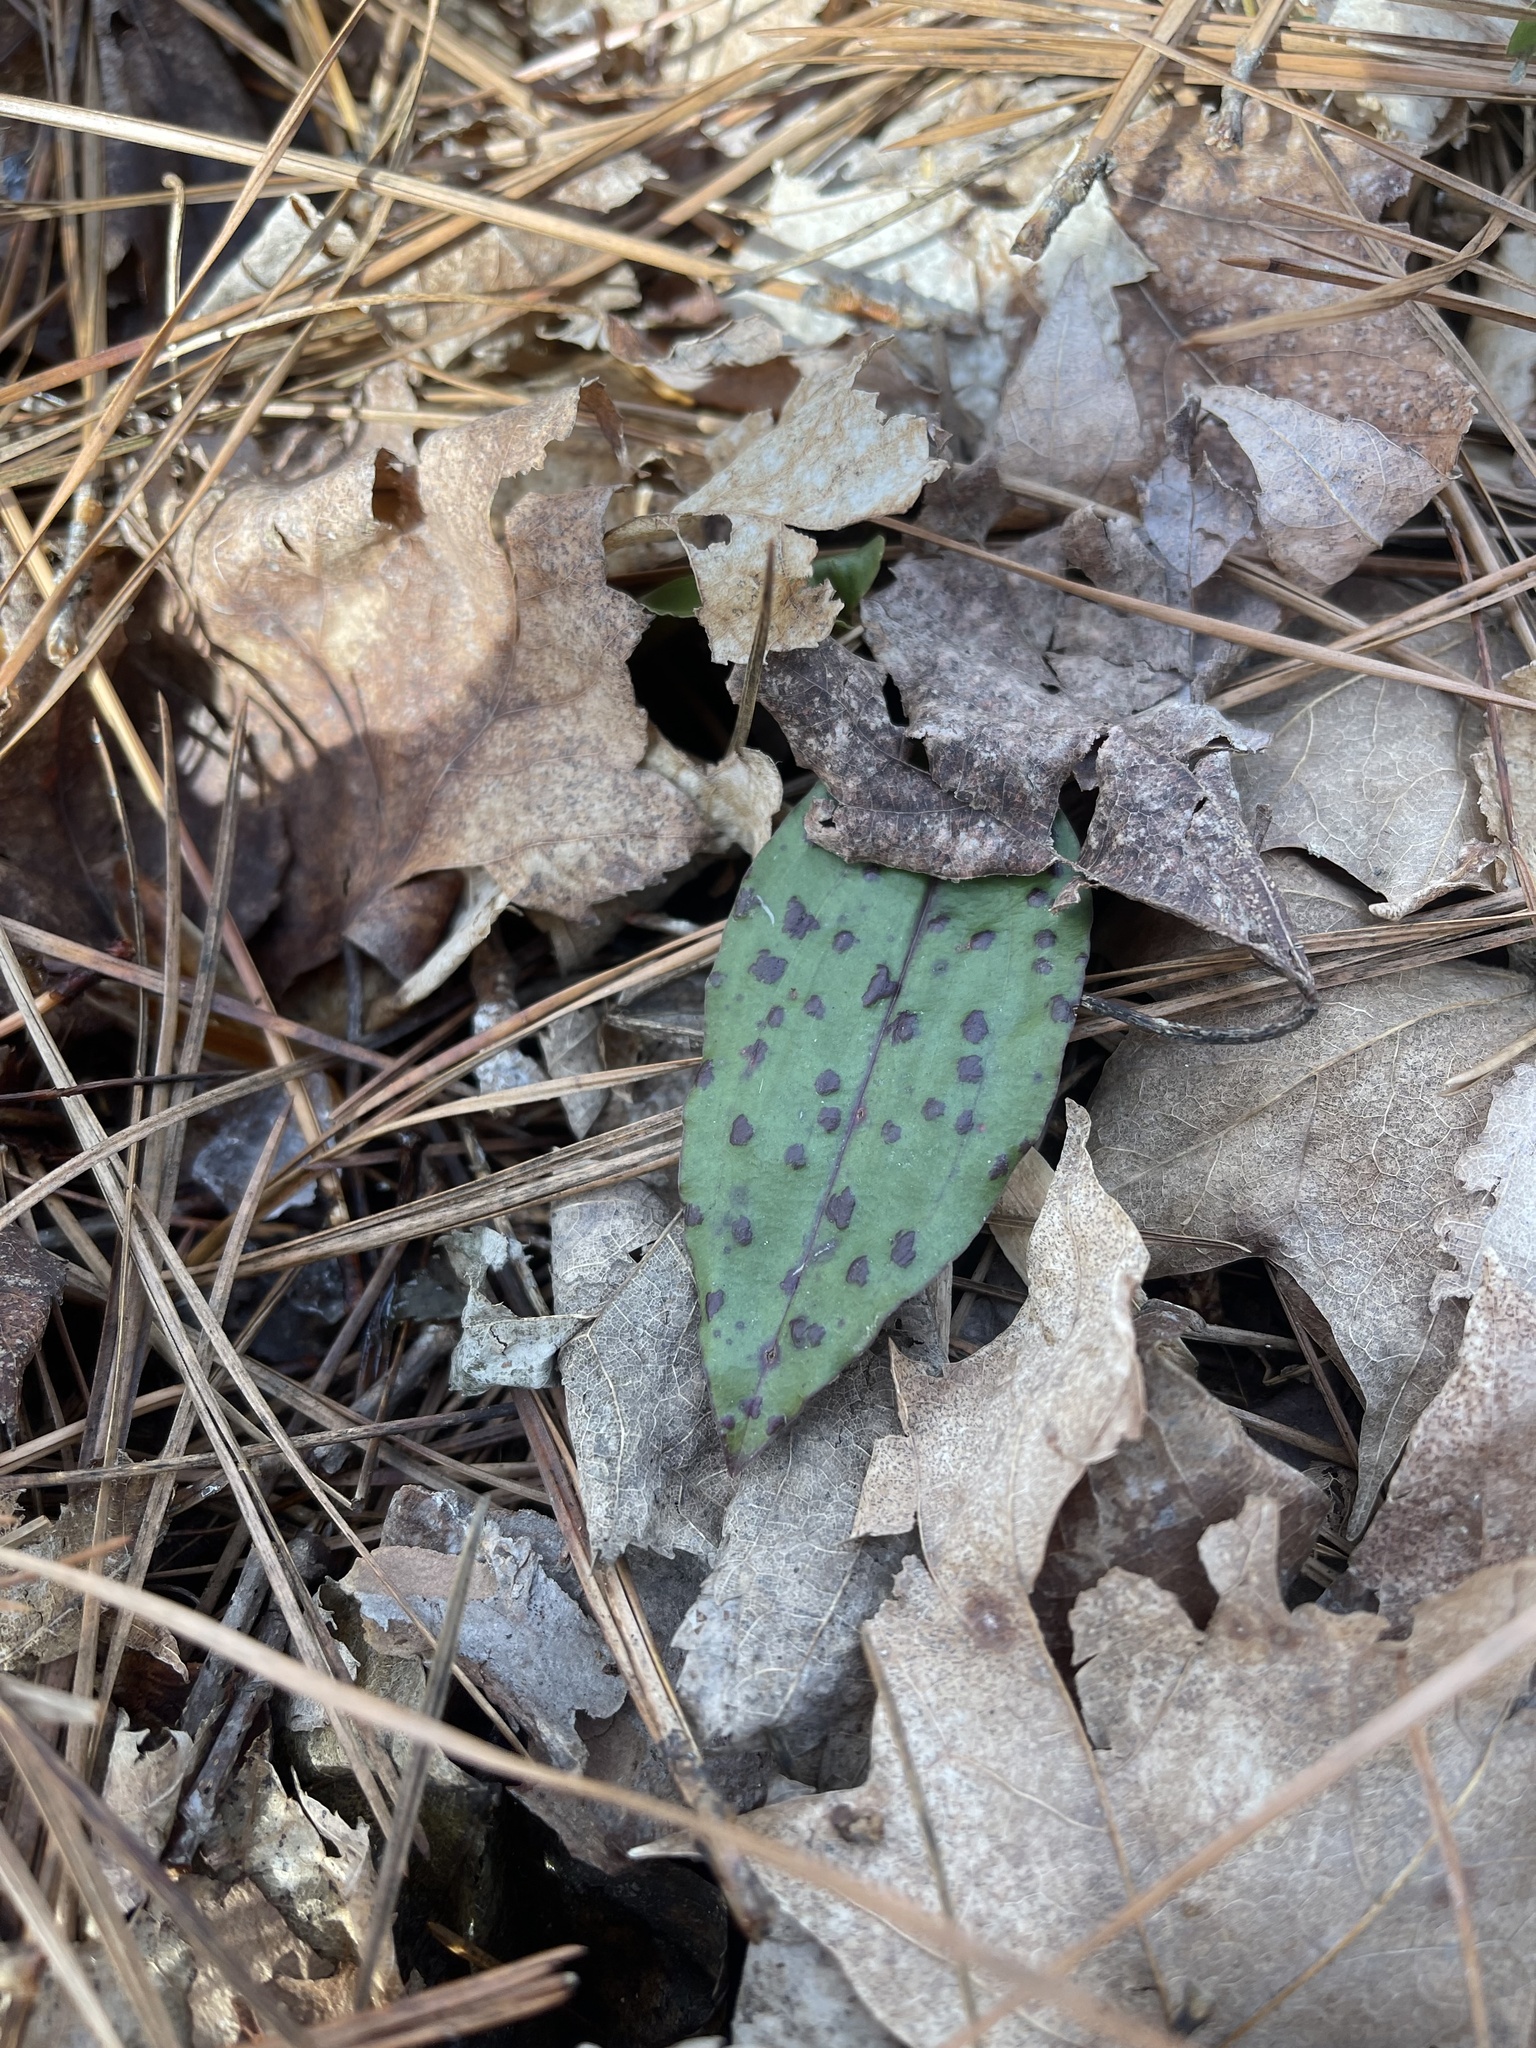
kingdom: Plantae
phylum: Tracheophyta
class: Liliopsida
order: Asparagales
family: Orchidaceae
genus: Tipularia
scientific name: Tipularia discolor
